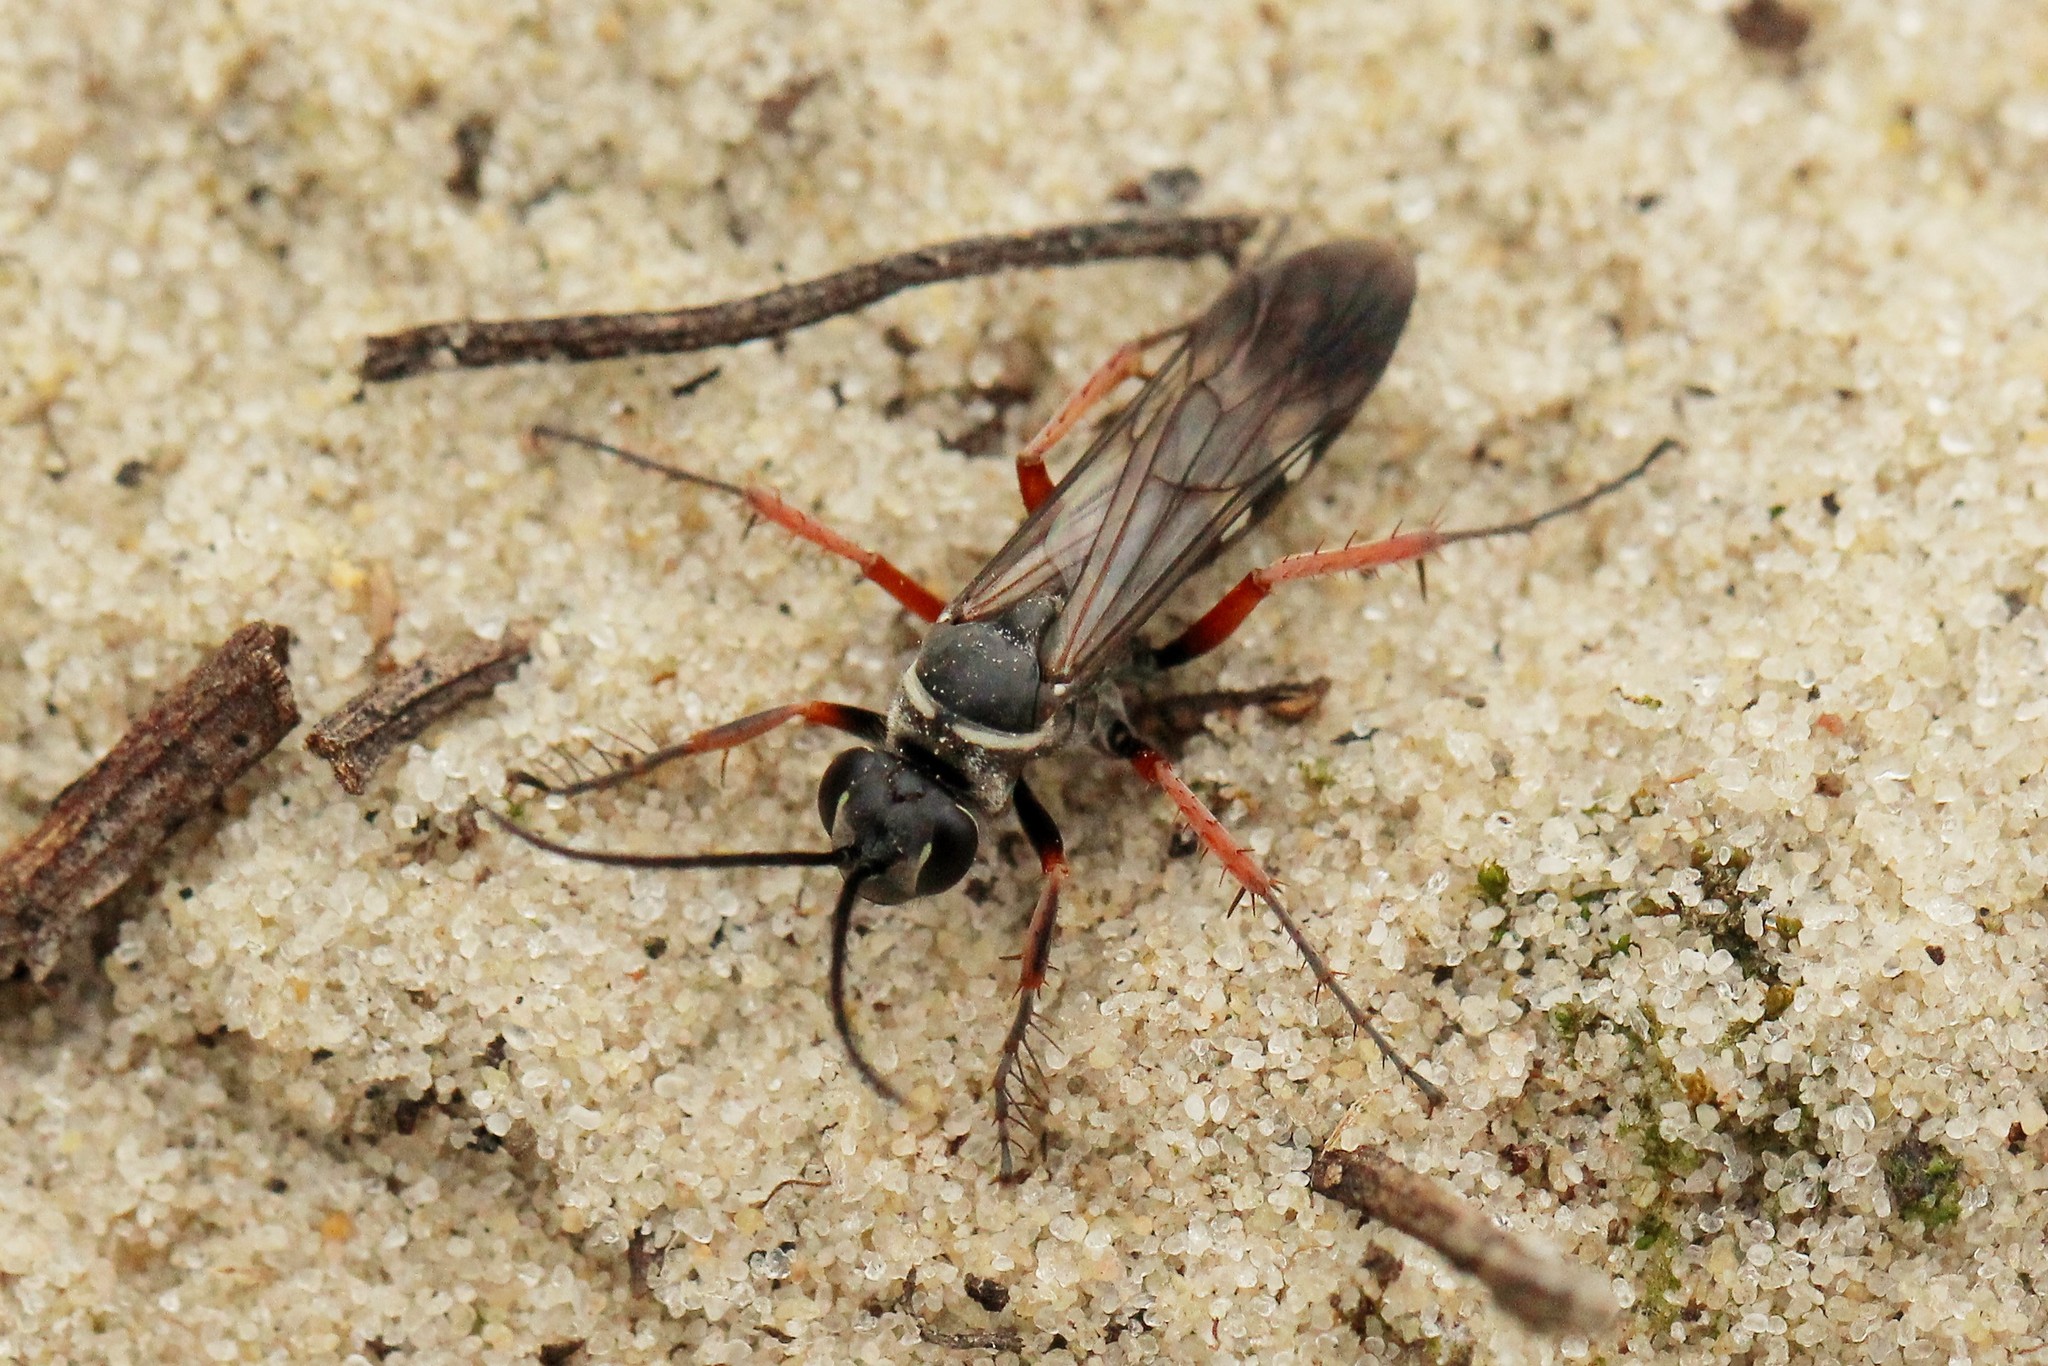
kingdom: Animalia
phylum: Arthropoda
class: Insecta
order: Hymenoptera
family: Pompilidae
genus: Episyron
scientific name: Episyron rufipes
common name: Red legged spider wasp
